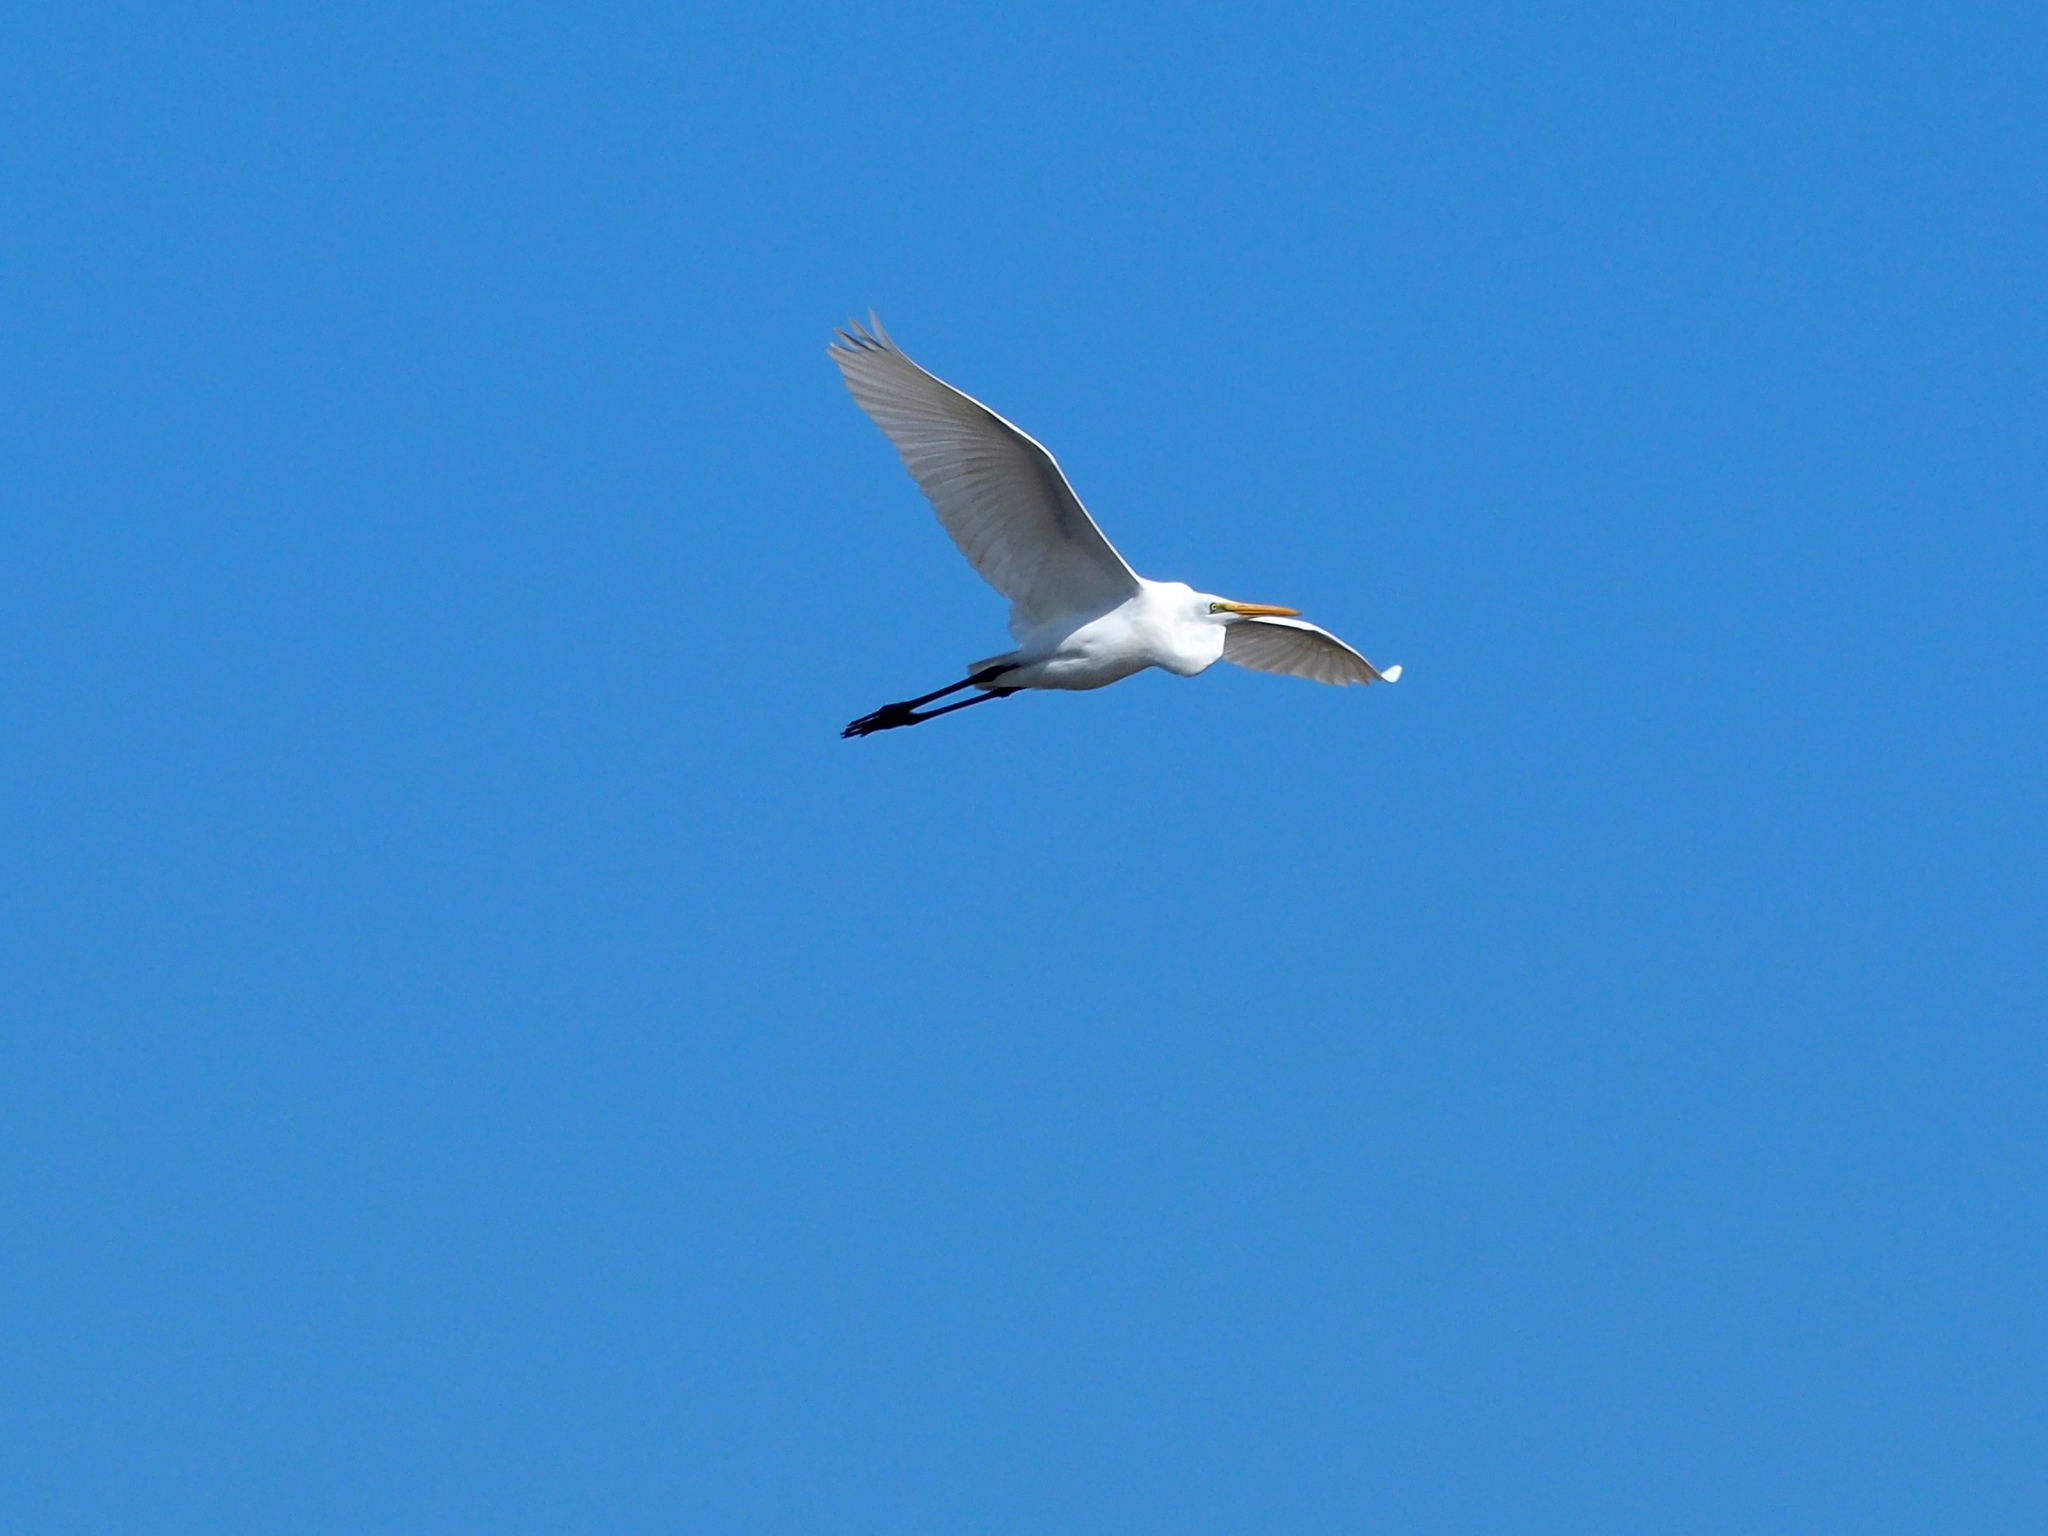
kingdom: Animalia
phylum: Chordata
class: Aves
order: Pelecaniformes
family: Ardeidae
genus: Ardea
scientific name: Ardea alba
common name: Great egret
